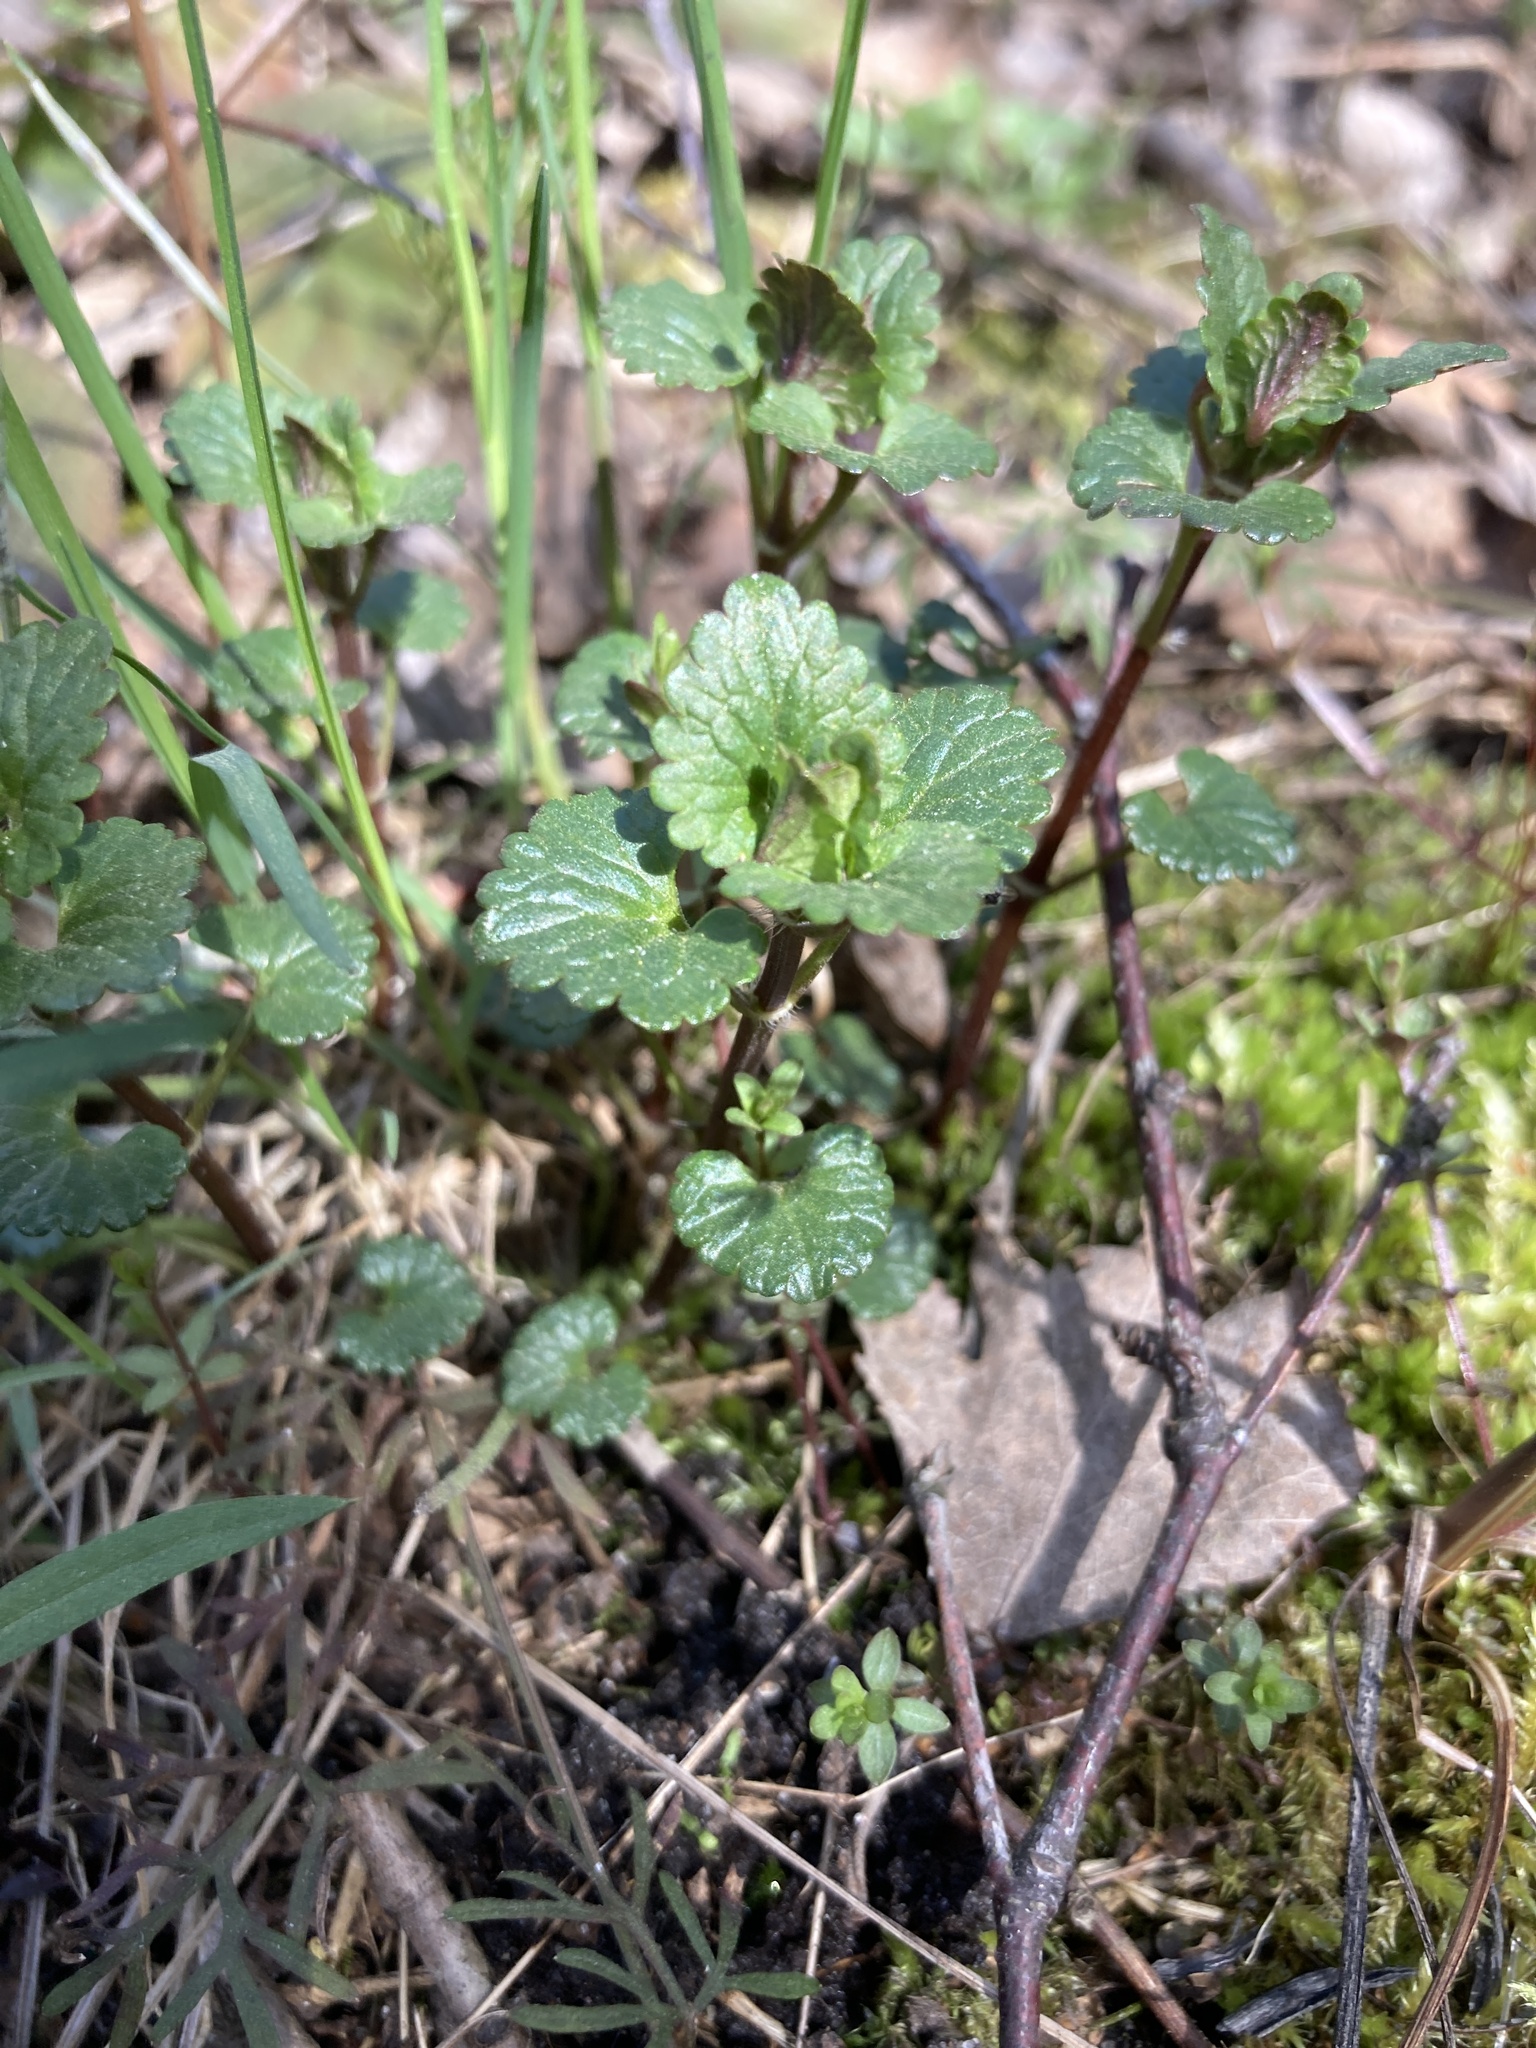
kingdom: Plantae
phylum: Tracheophyta
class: Magnoliopsida
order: Lamiales
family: Lamiaceae
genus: Glechoma
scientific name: Glechoma hederacea
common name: Ground ivy
